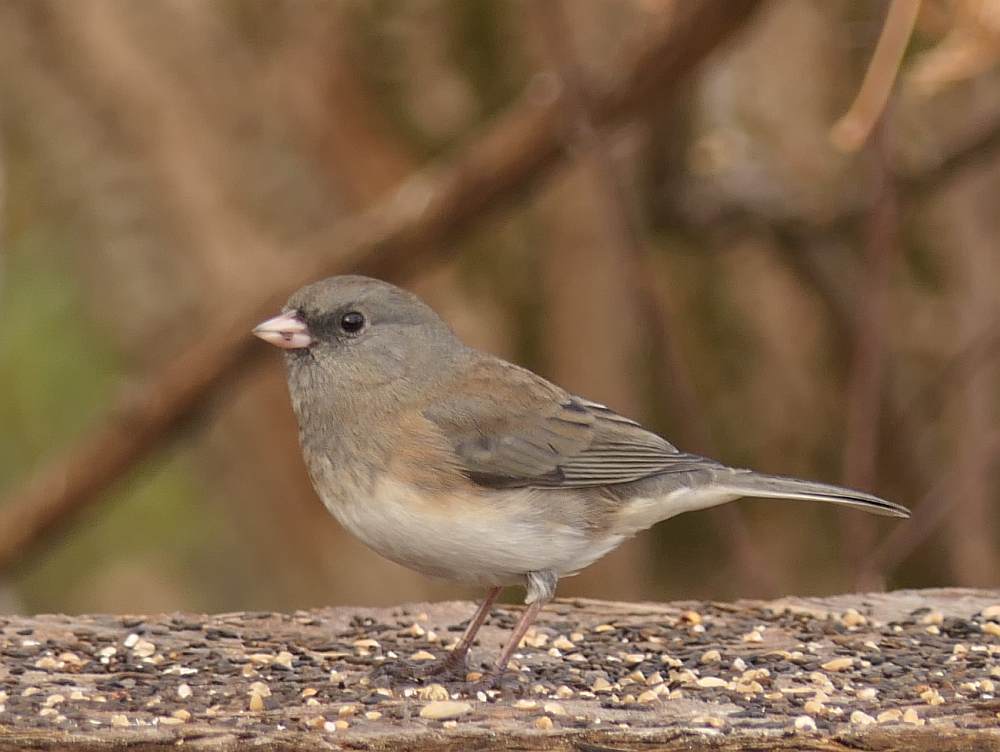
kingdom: Animalia
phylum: Chordata
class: Aves
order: Passeriformes
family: Passerellidae
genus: Junco
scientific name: Junco hyemalis
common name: Dark-eyed junco
